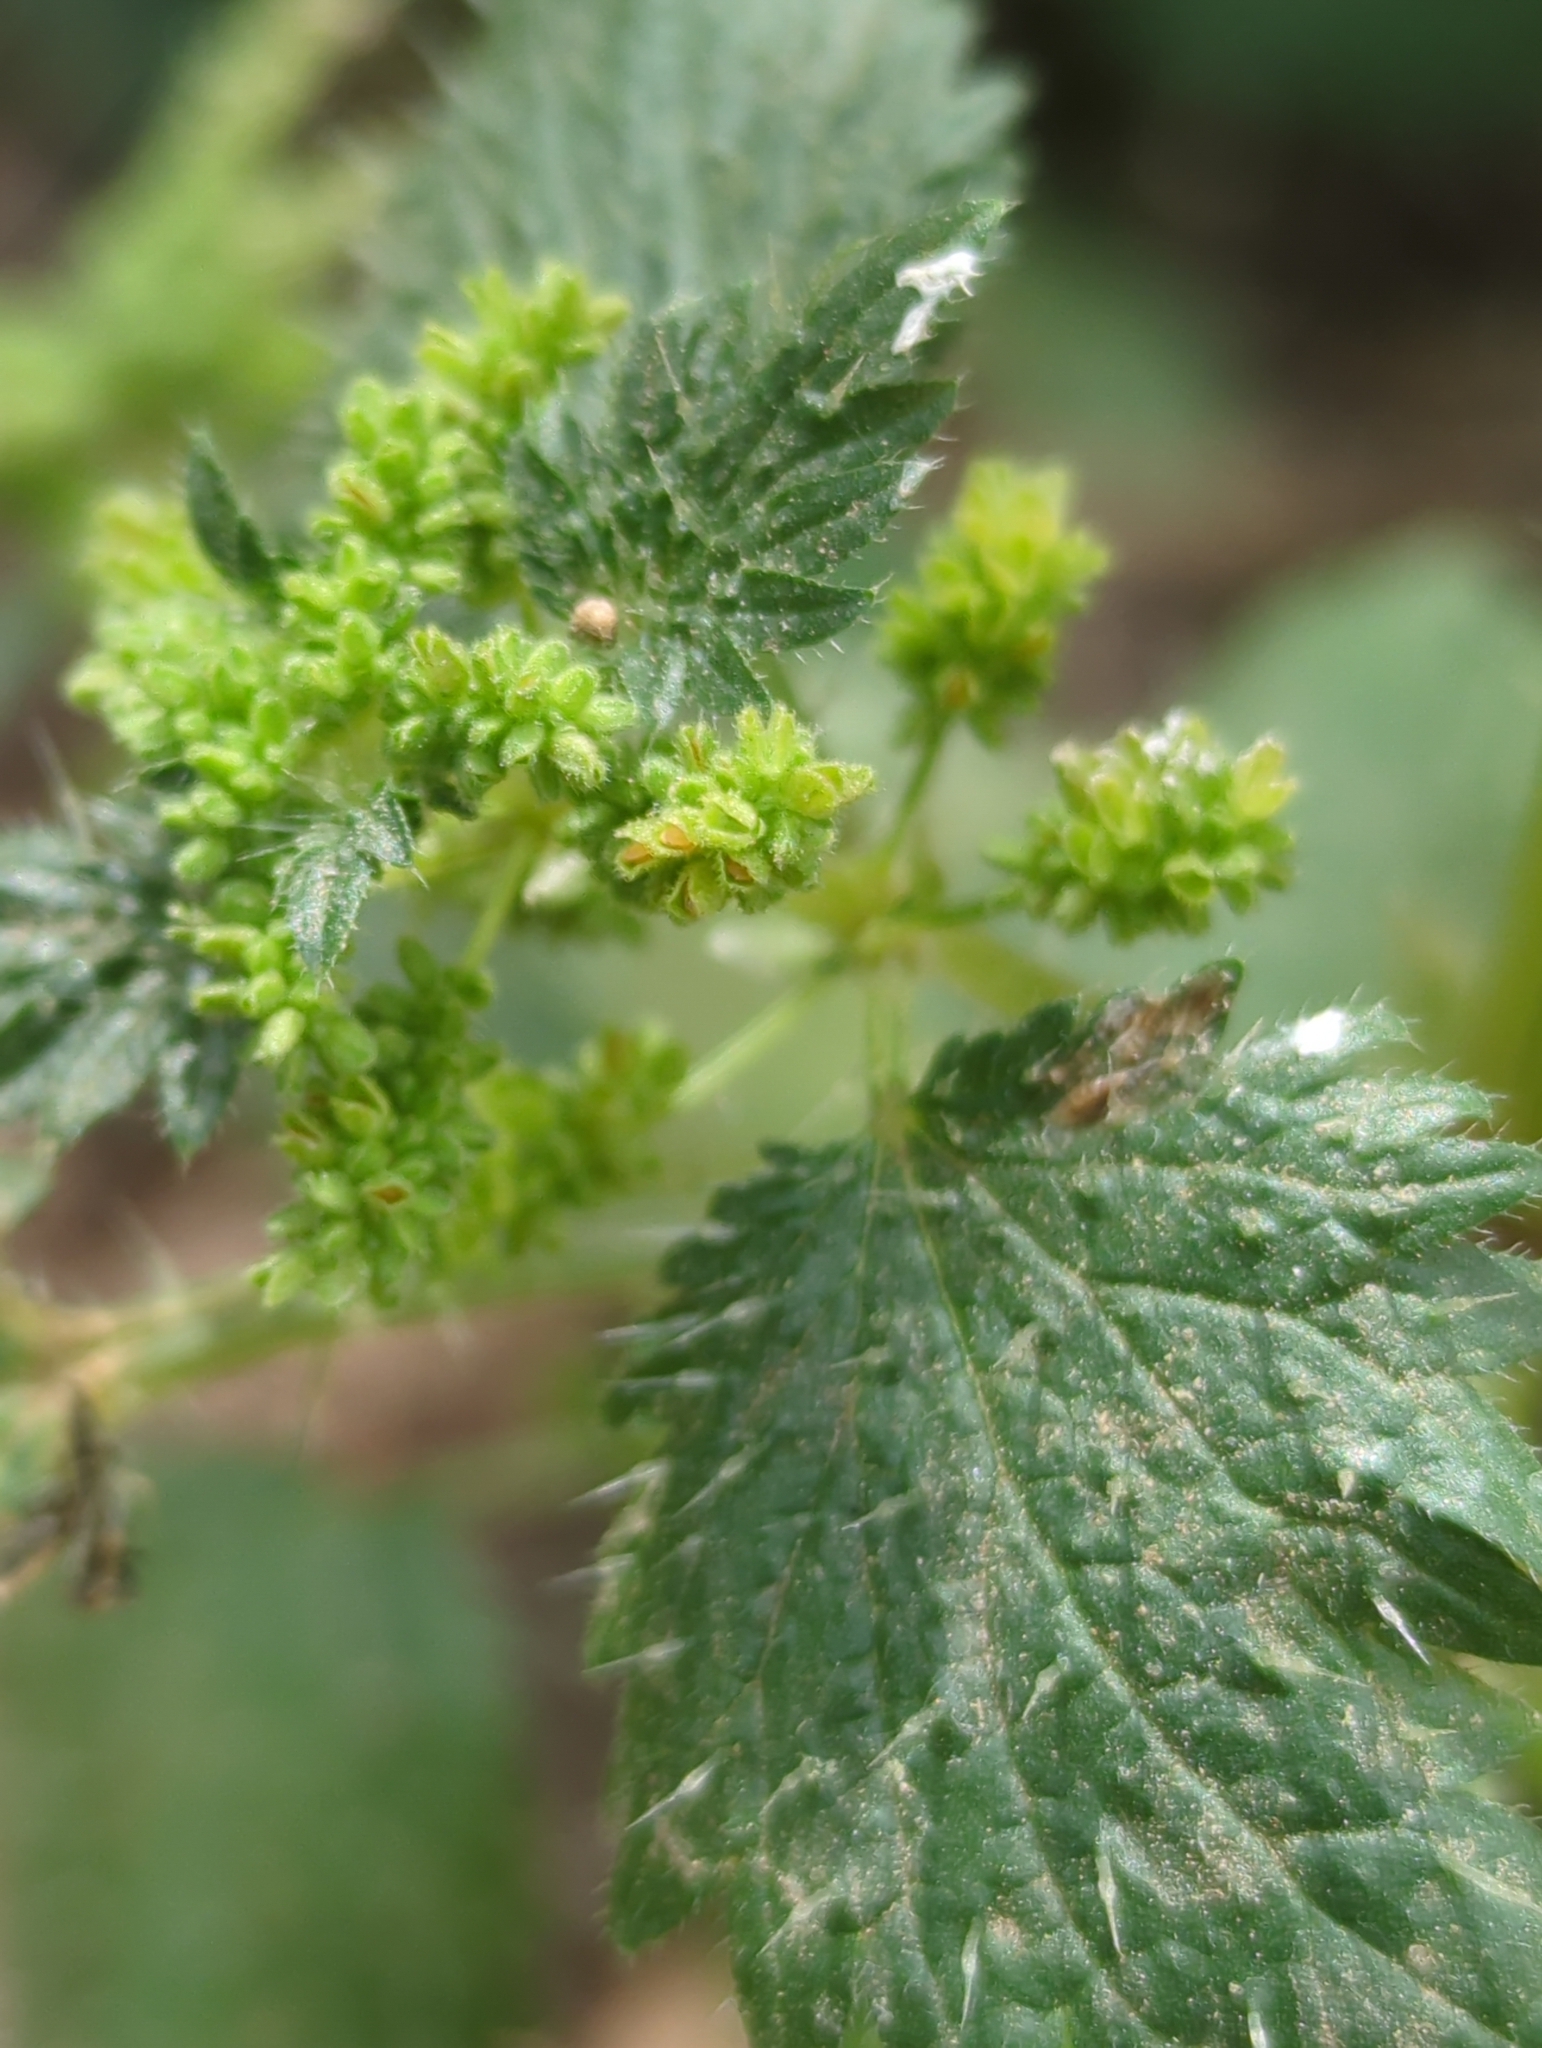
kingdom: Plantae
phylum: Tracheophyta
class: Magnoliopsida
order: Rosales
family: Urticaceae
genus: Urtica
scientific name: Urtica membranacea
